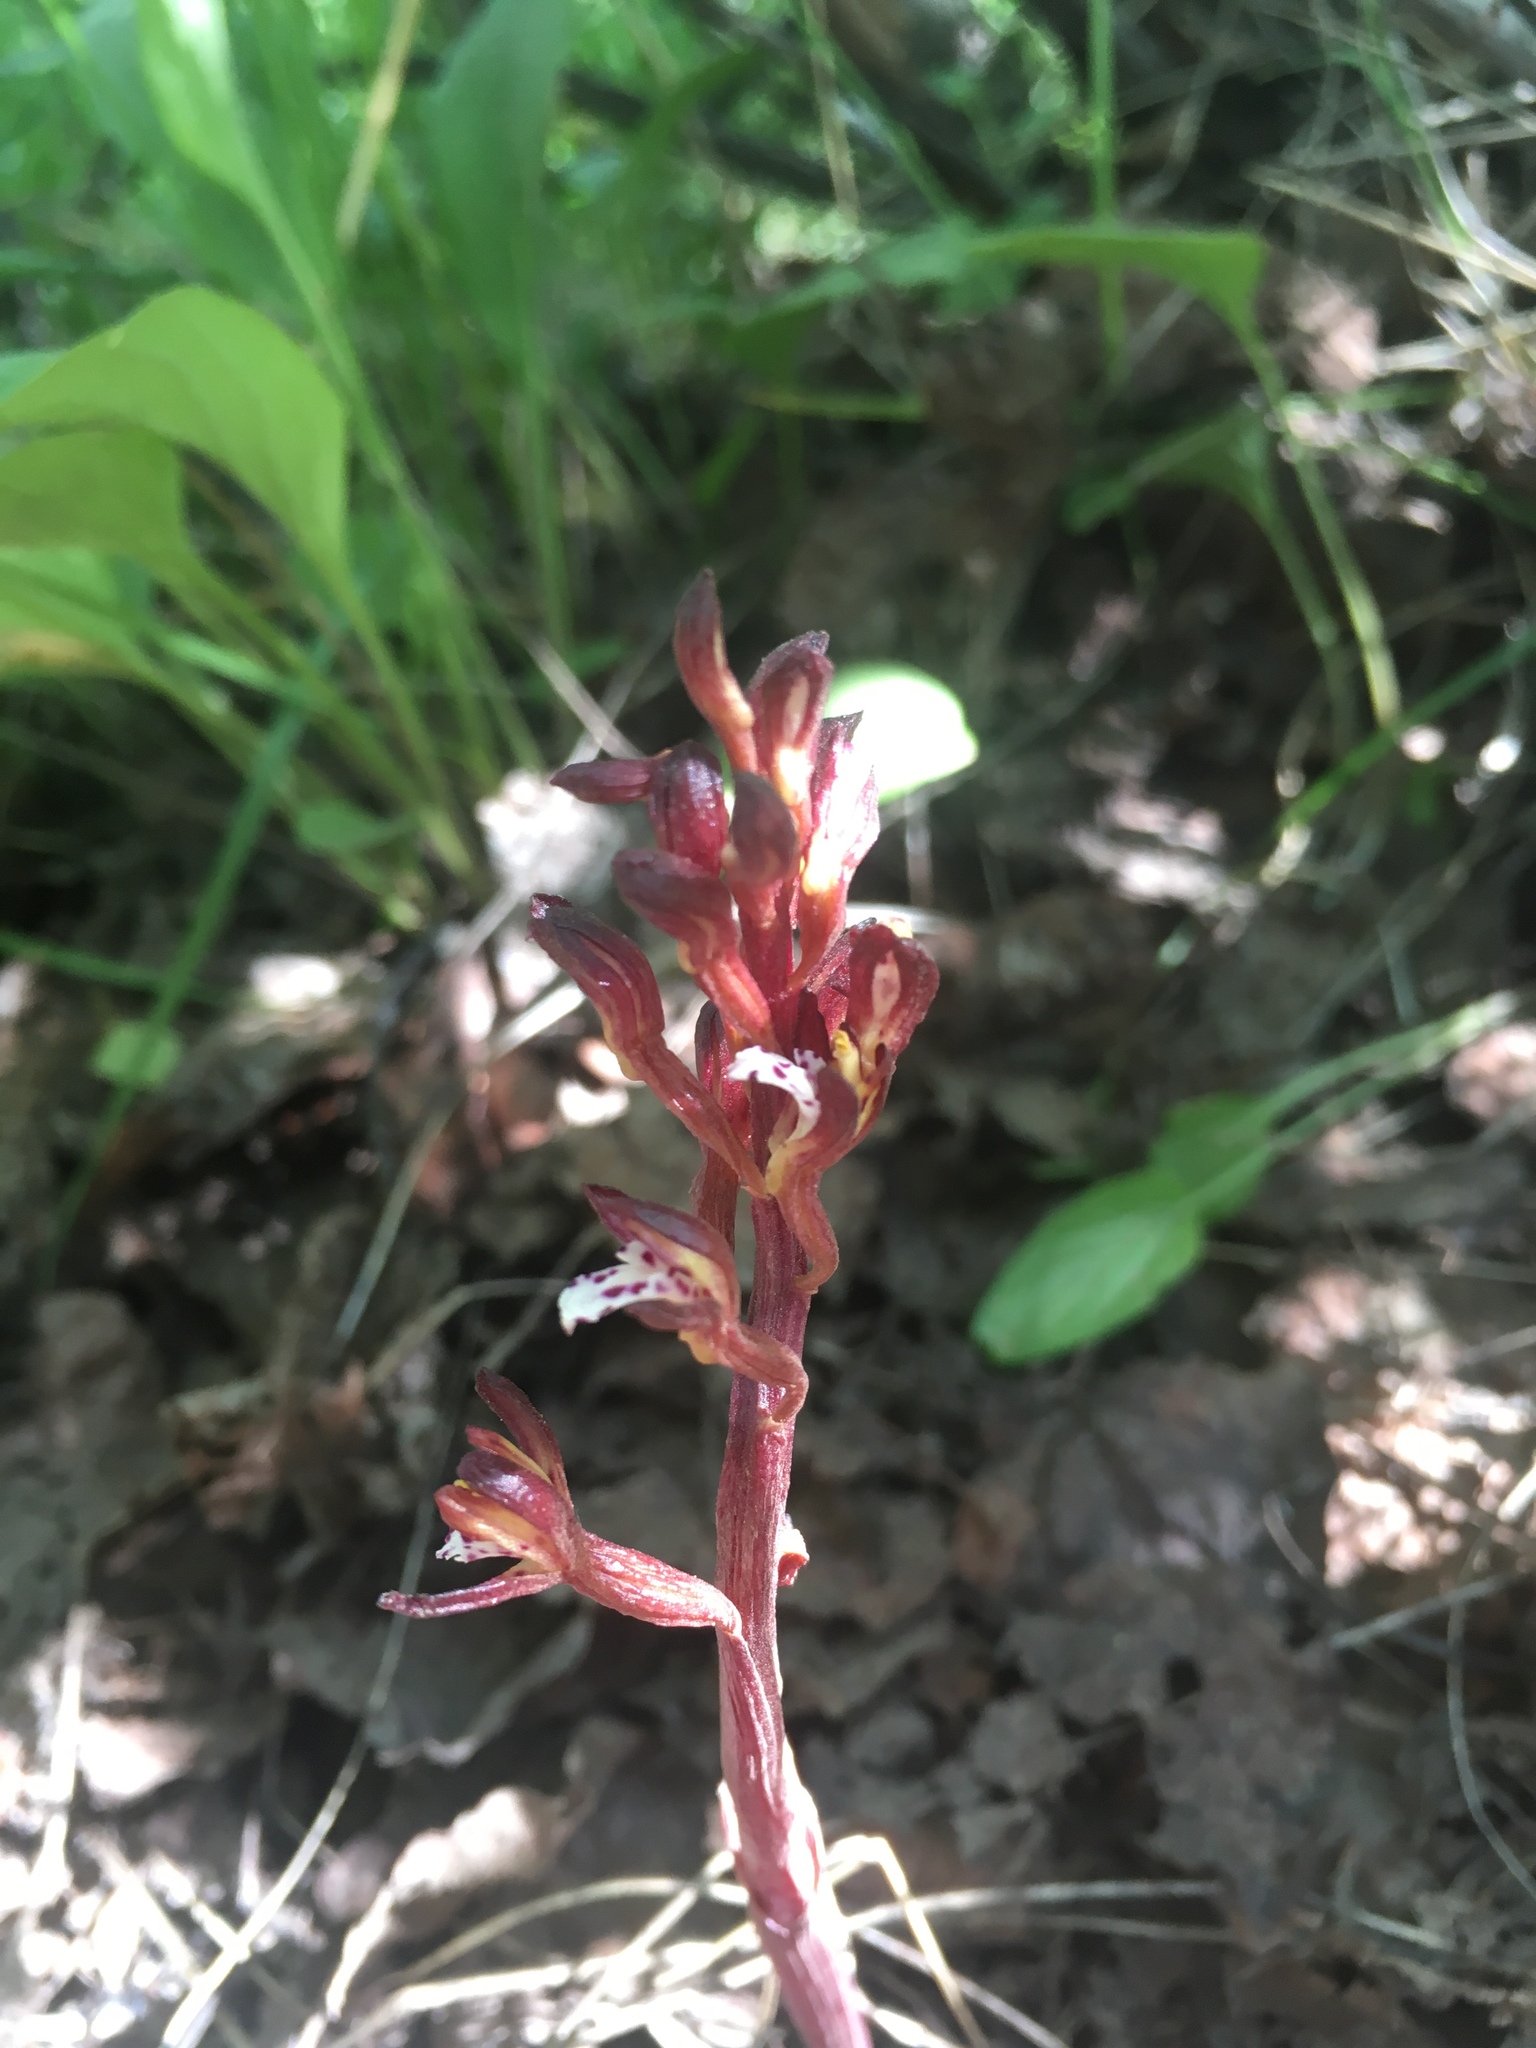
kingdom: Plantae
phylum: Tracheophyta
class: Liliopsida
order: Asparagales
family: Orchidaceae
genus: Corallorhiza
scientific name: Corallorhiza maculata
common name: Spotted coralroot
